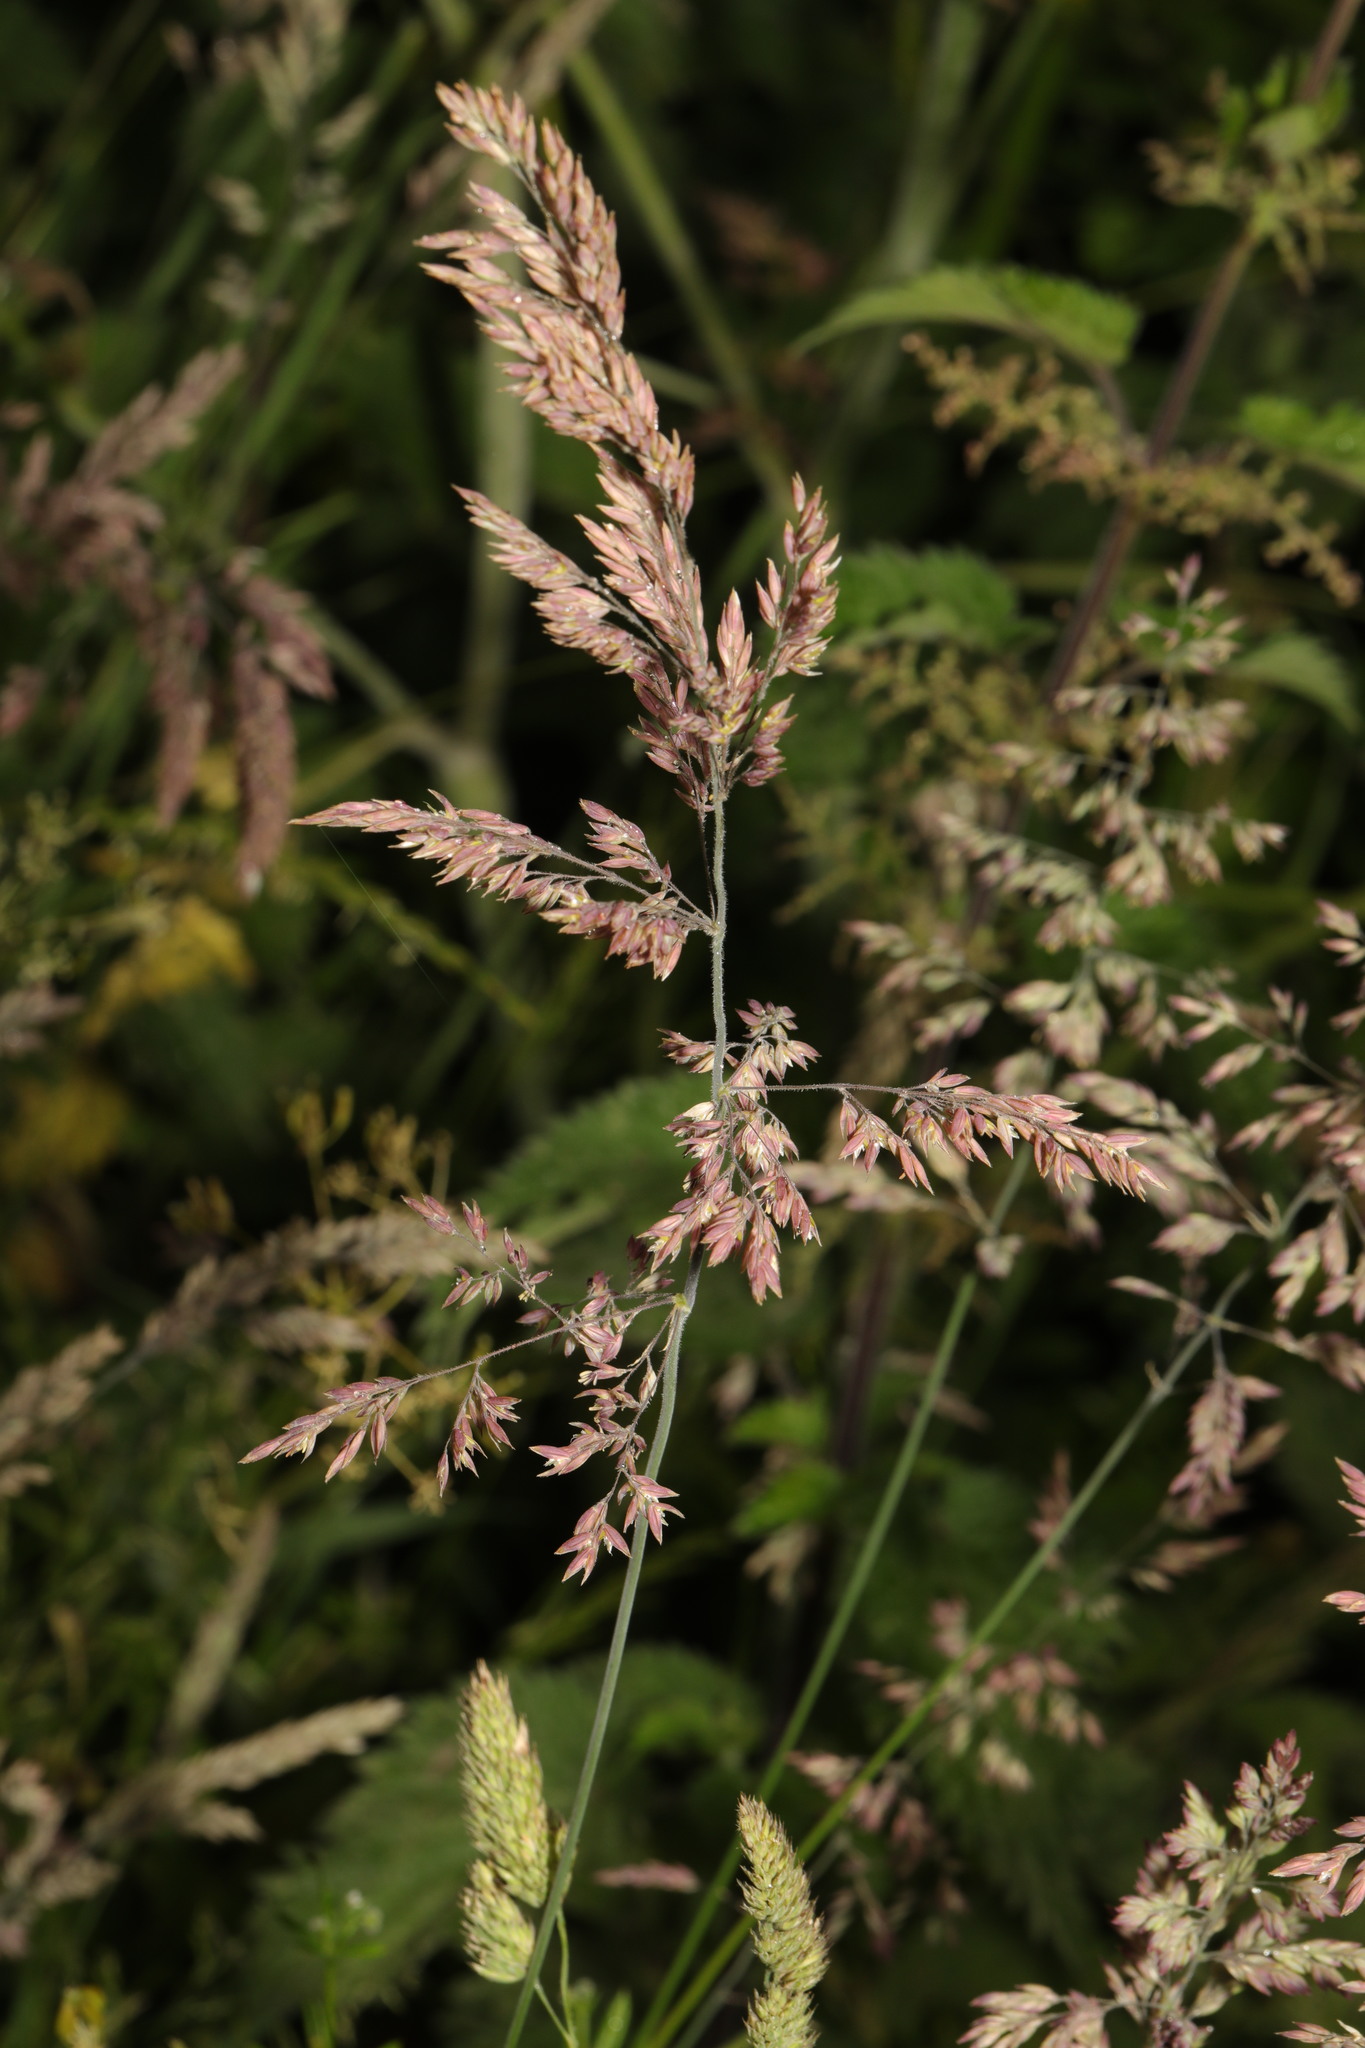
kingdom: Plantae
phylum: Tracheophyta
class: Liliopsida
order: Poales
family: Poaceae
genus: Holcus
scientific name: Holcus lanatus
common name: Yorkshire-fog
